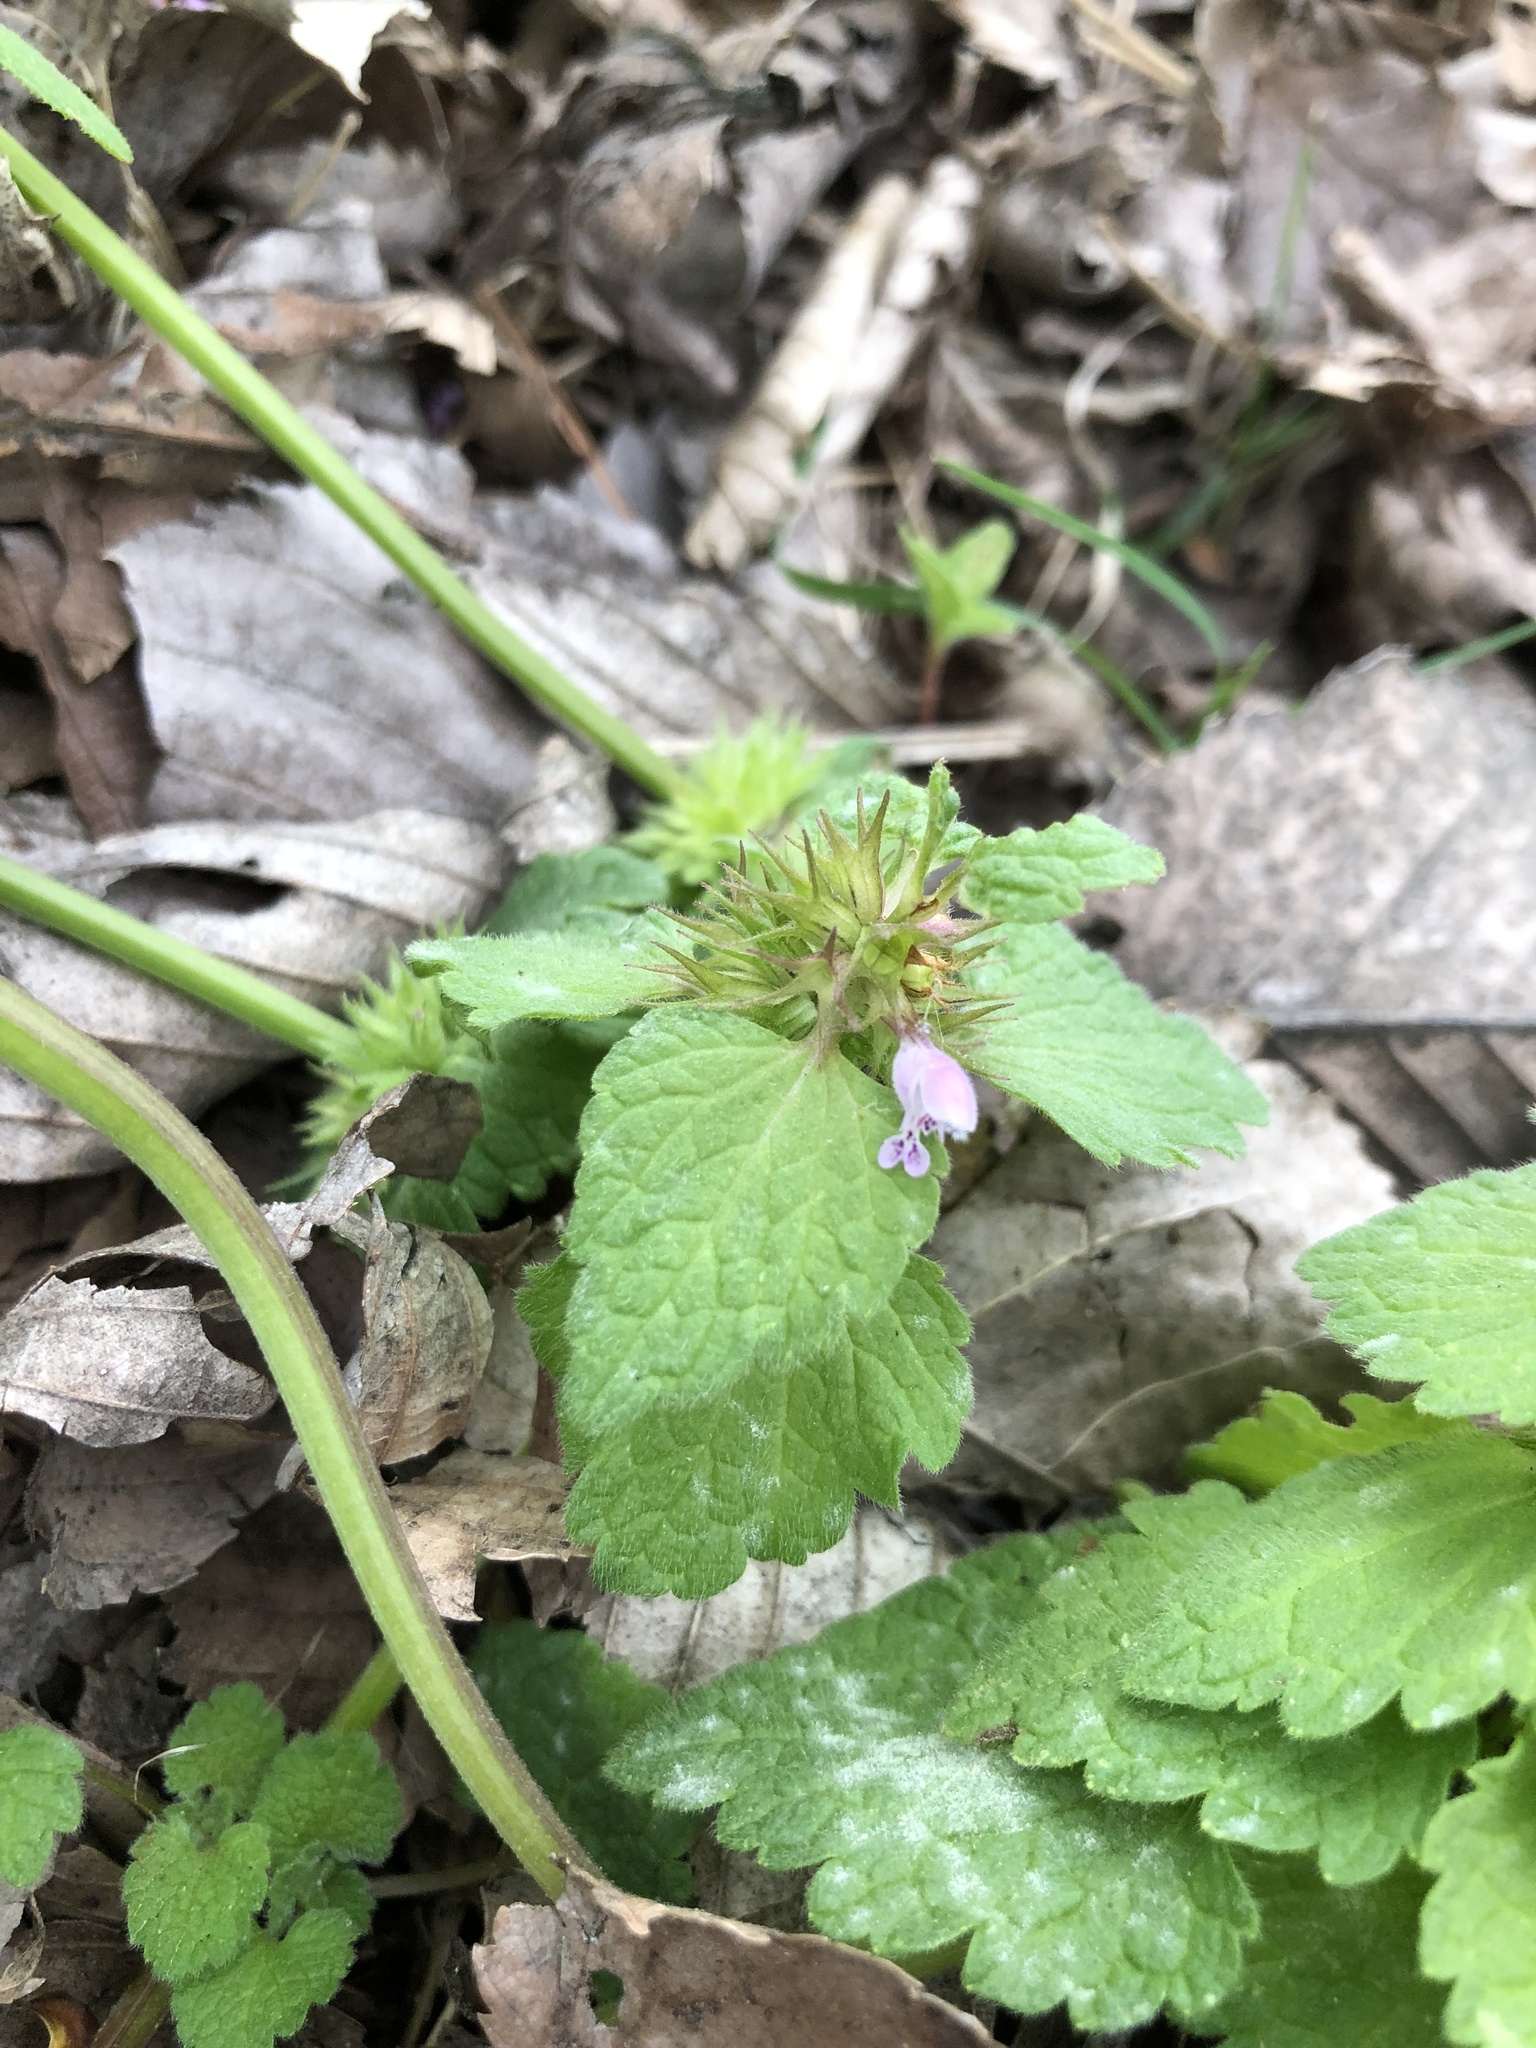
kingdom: Plantae
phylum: Tracheophyta
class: Magnoliopsida
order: Lamiales
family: Lamiaceae
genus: Lamium
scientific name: Lamium purpureum
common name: Red dead-nettle
